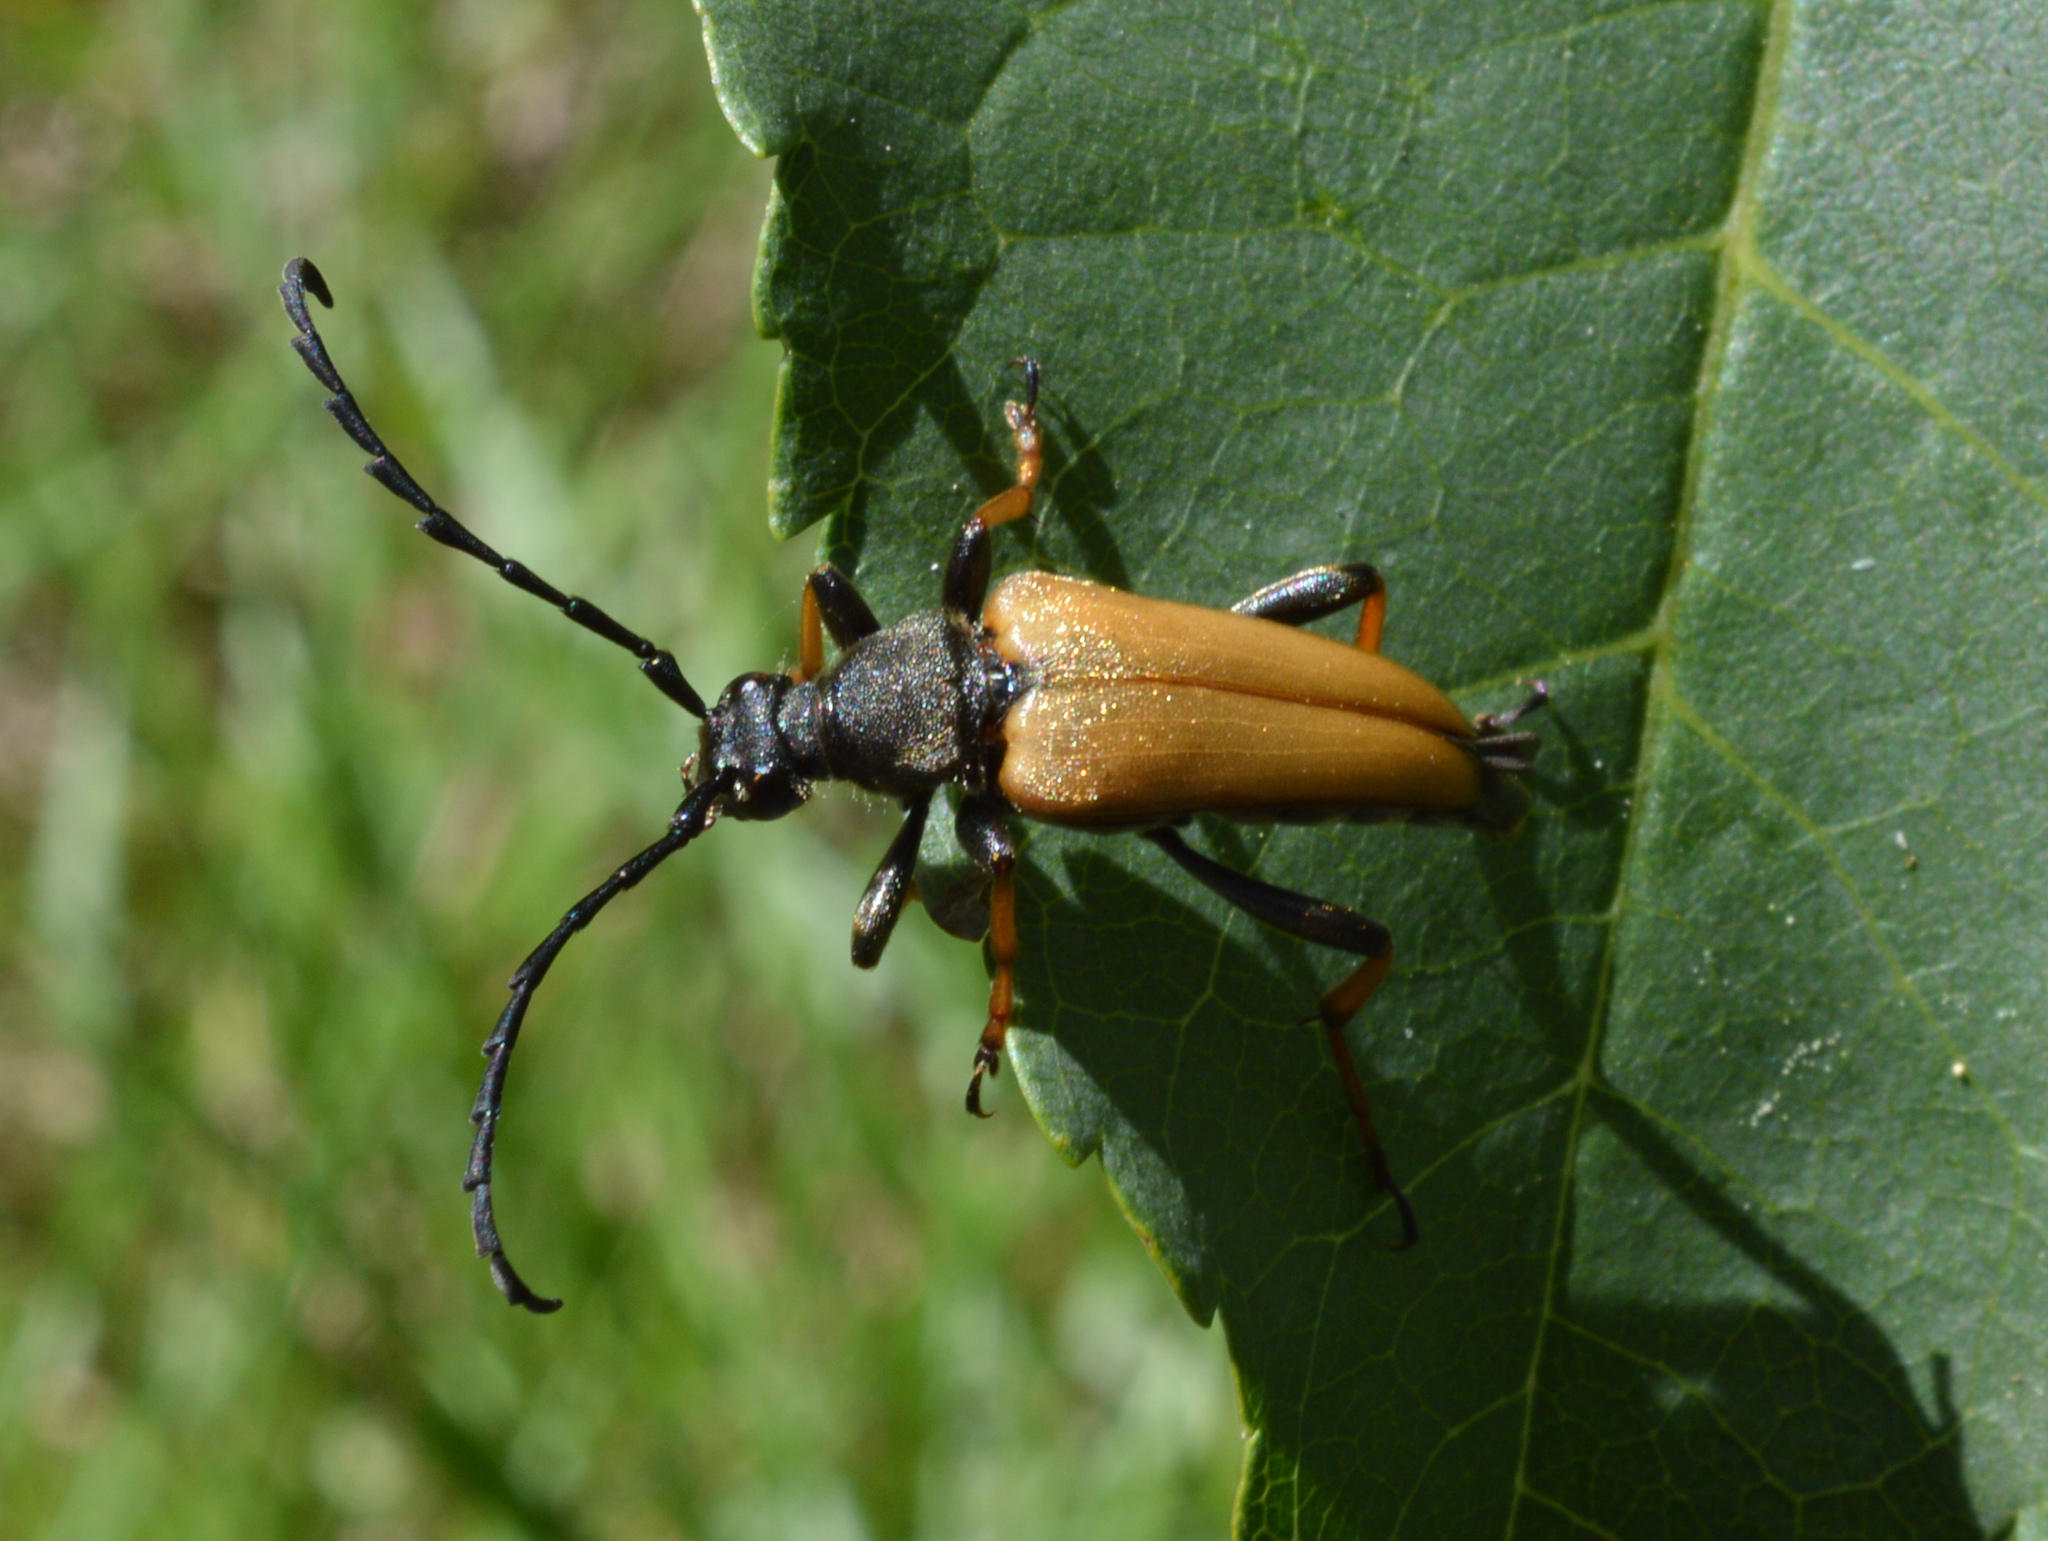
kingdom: Animalia
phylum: Arthropoda
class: Insecta
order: Coleoptera
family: Cerambycidae
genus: Stictoleptura
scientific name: Stictoleptura rubra
